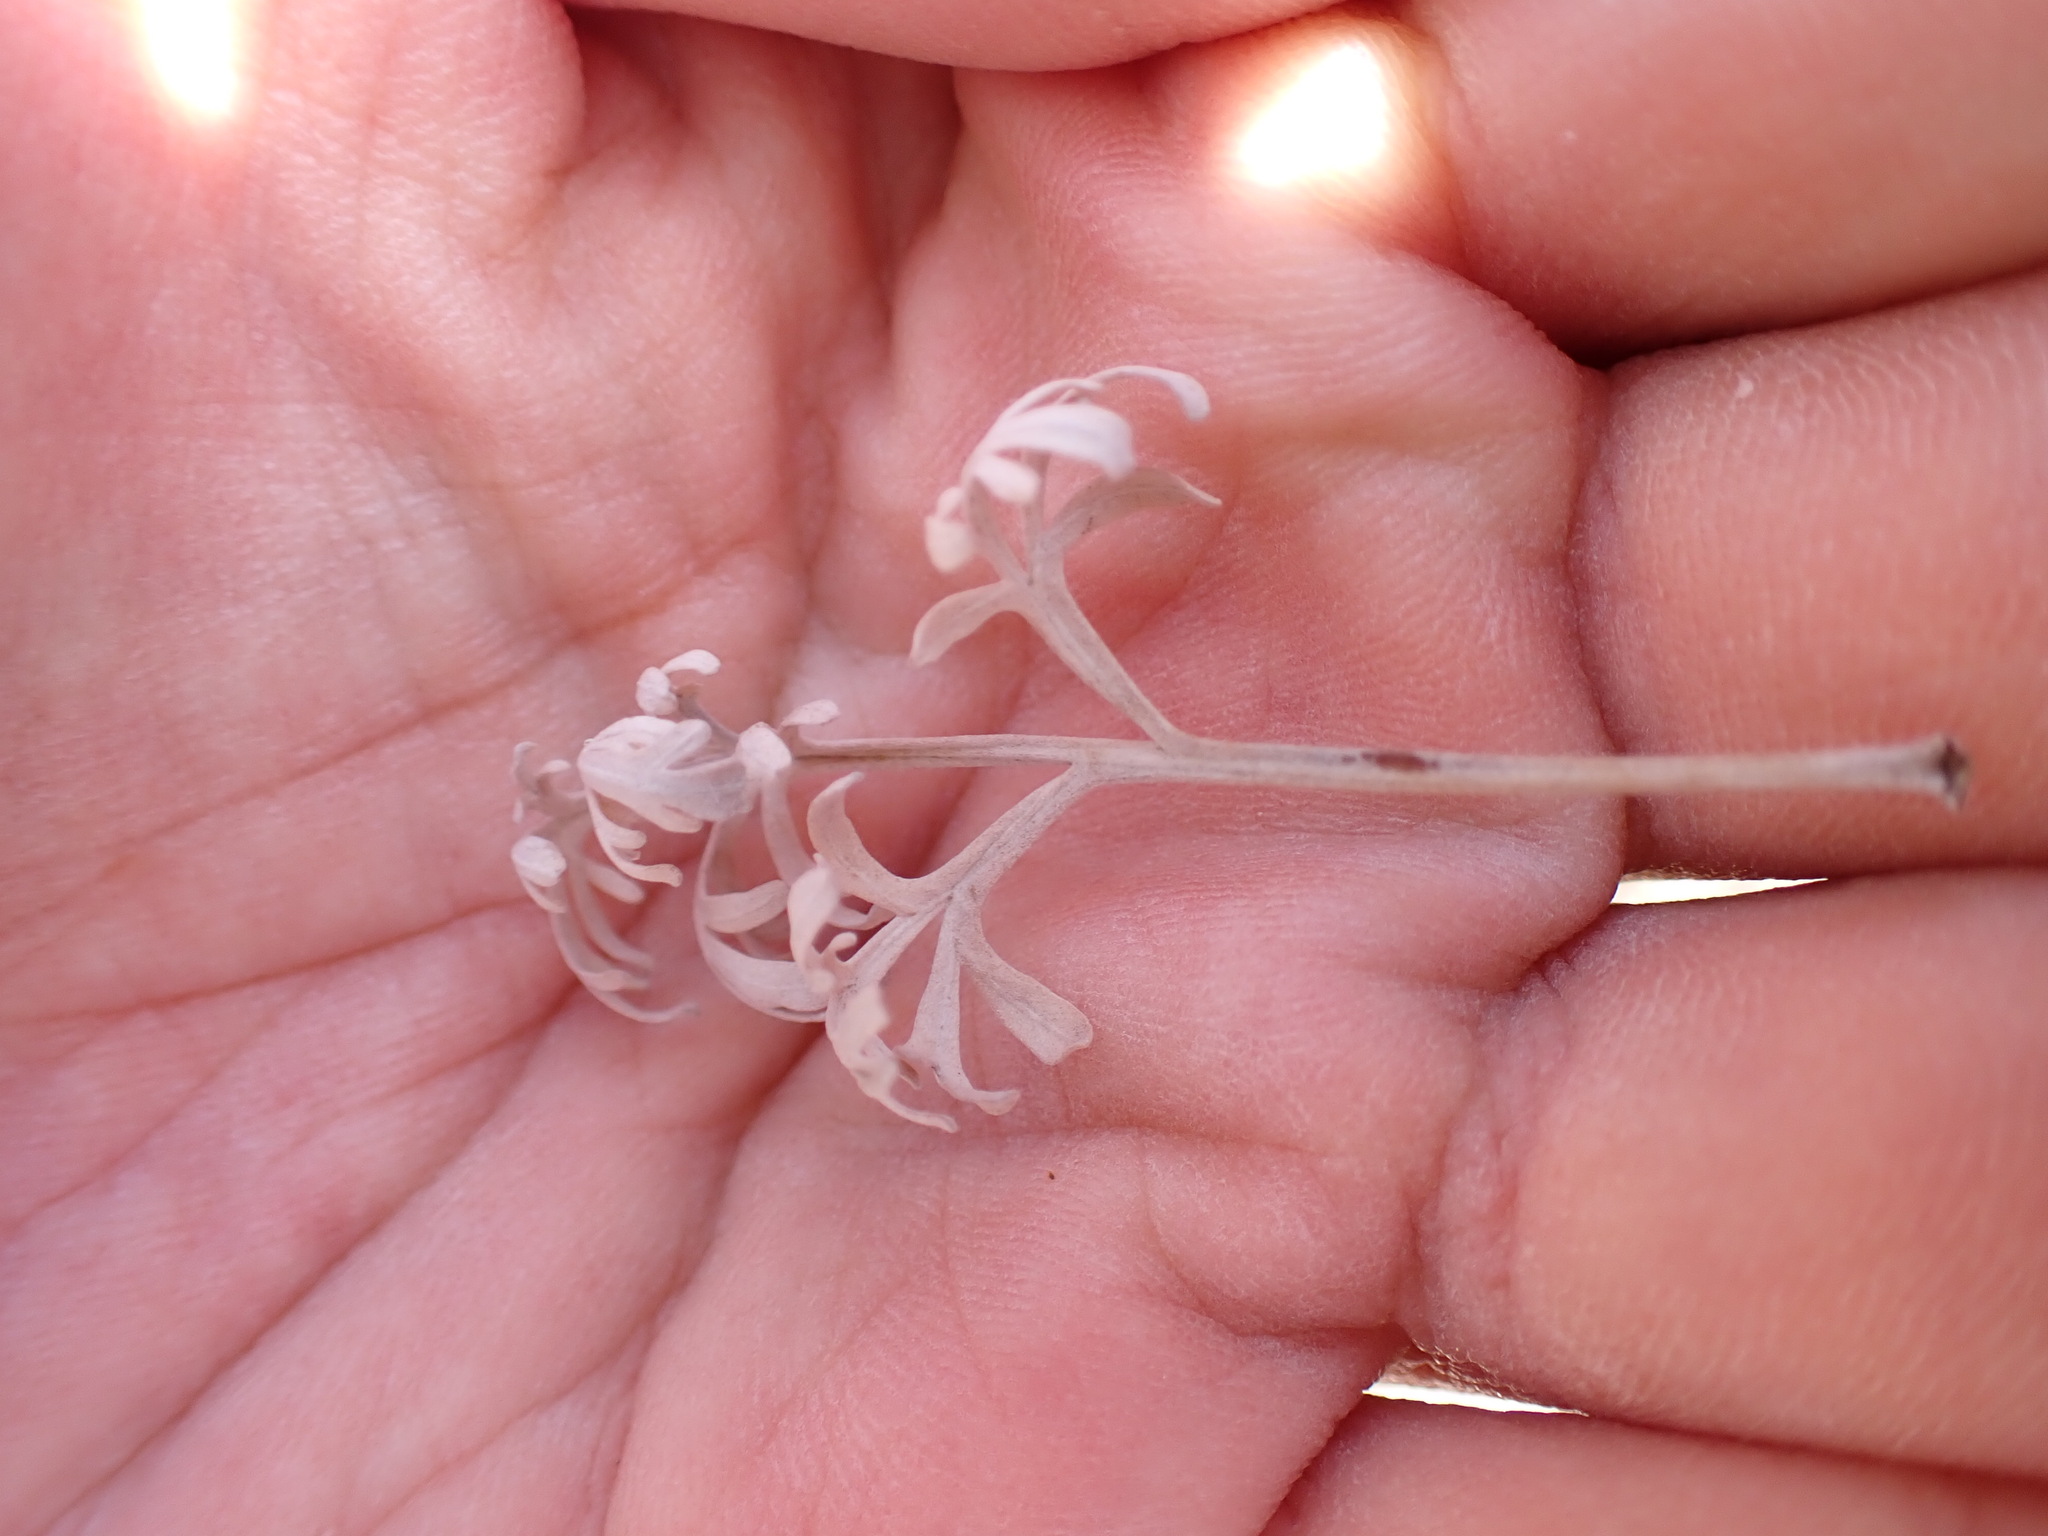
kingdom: Plantae
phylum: Tracheophyta
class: Magnoliopsida
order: Asterales
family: Asteraceae
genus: Artemisia
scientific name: Artemisia thuscula
